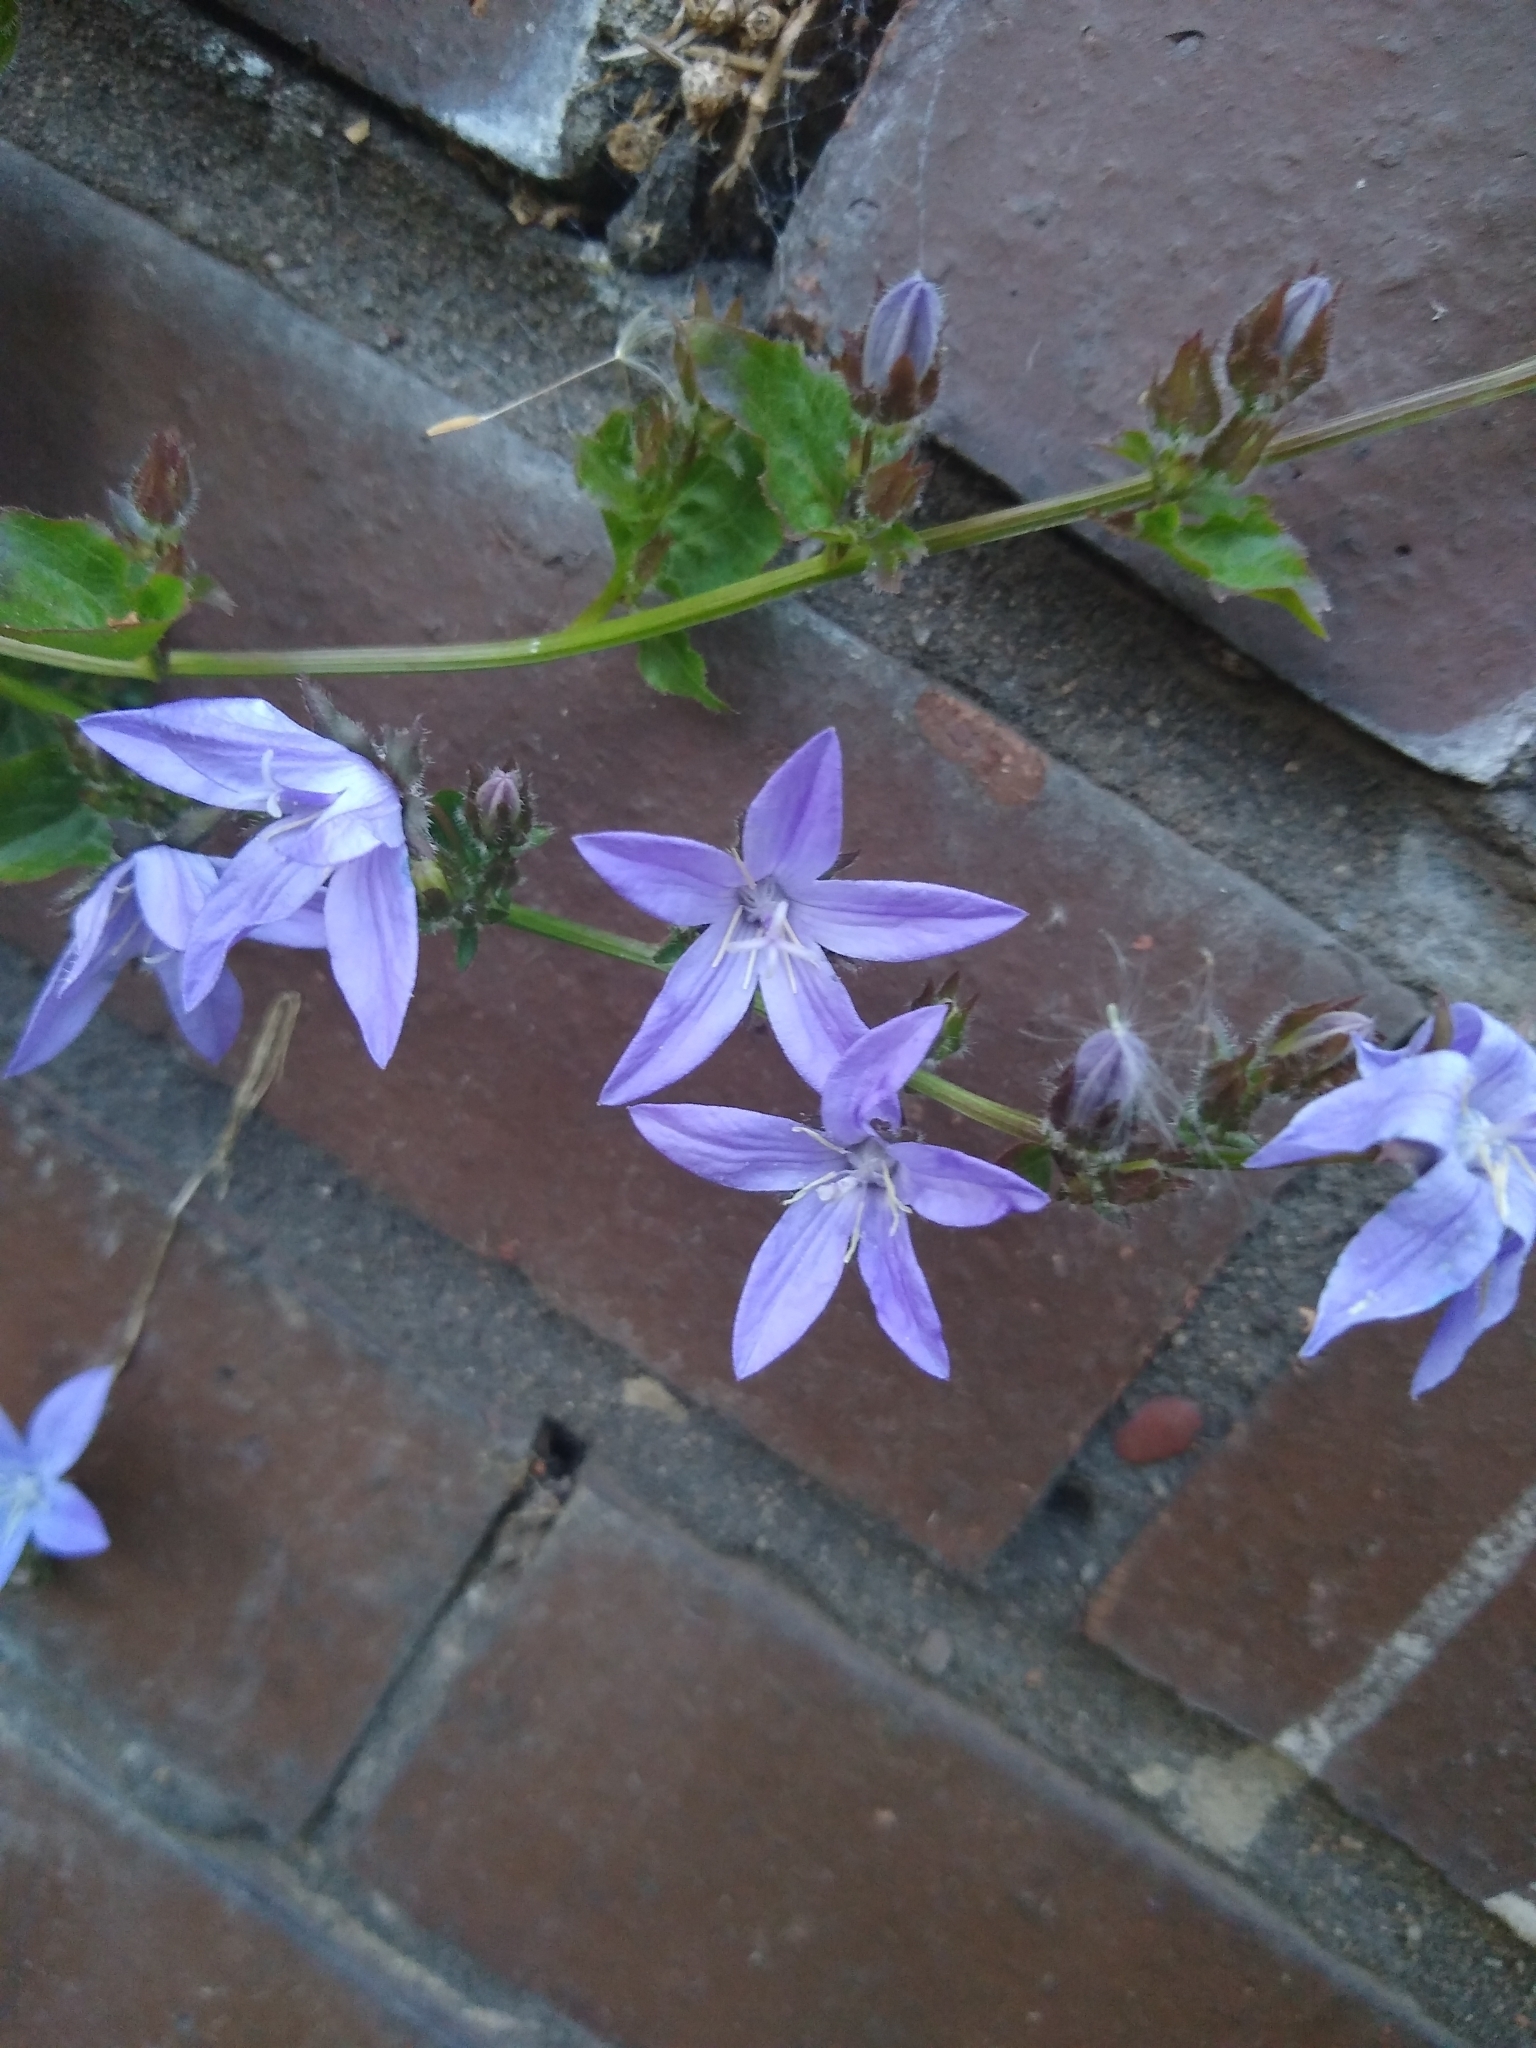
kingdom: Plantae
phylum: Tracheophyta
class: Magnoliopsida
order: Asterales
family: Campanulaceae
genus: Campanula
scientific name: Campanula poscharskyana
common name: Trailing bellflower
